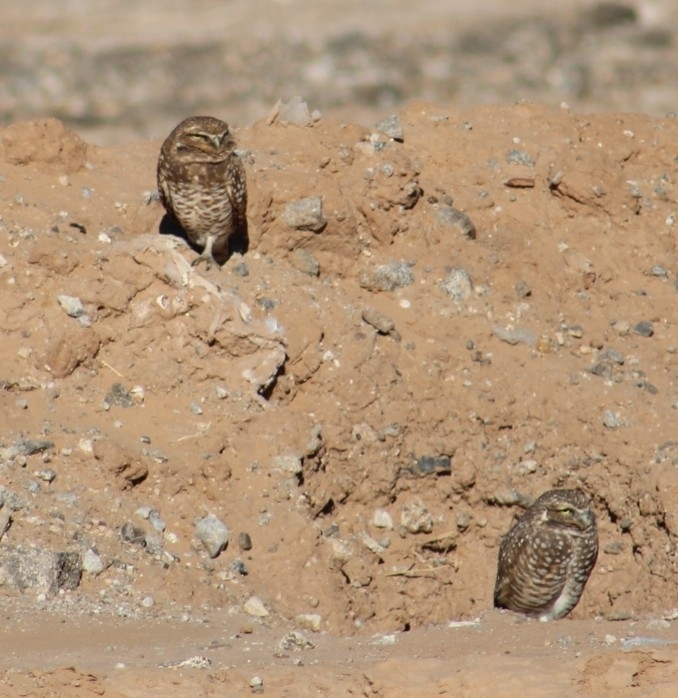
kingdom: Animalia
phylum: Chordata
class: Aves
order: Strigiformes
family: Strigidae
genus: Athene
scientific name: Athene cunicularia
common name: Burrowing owl
